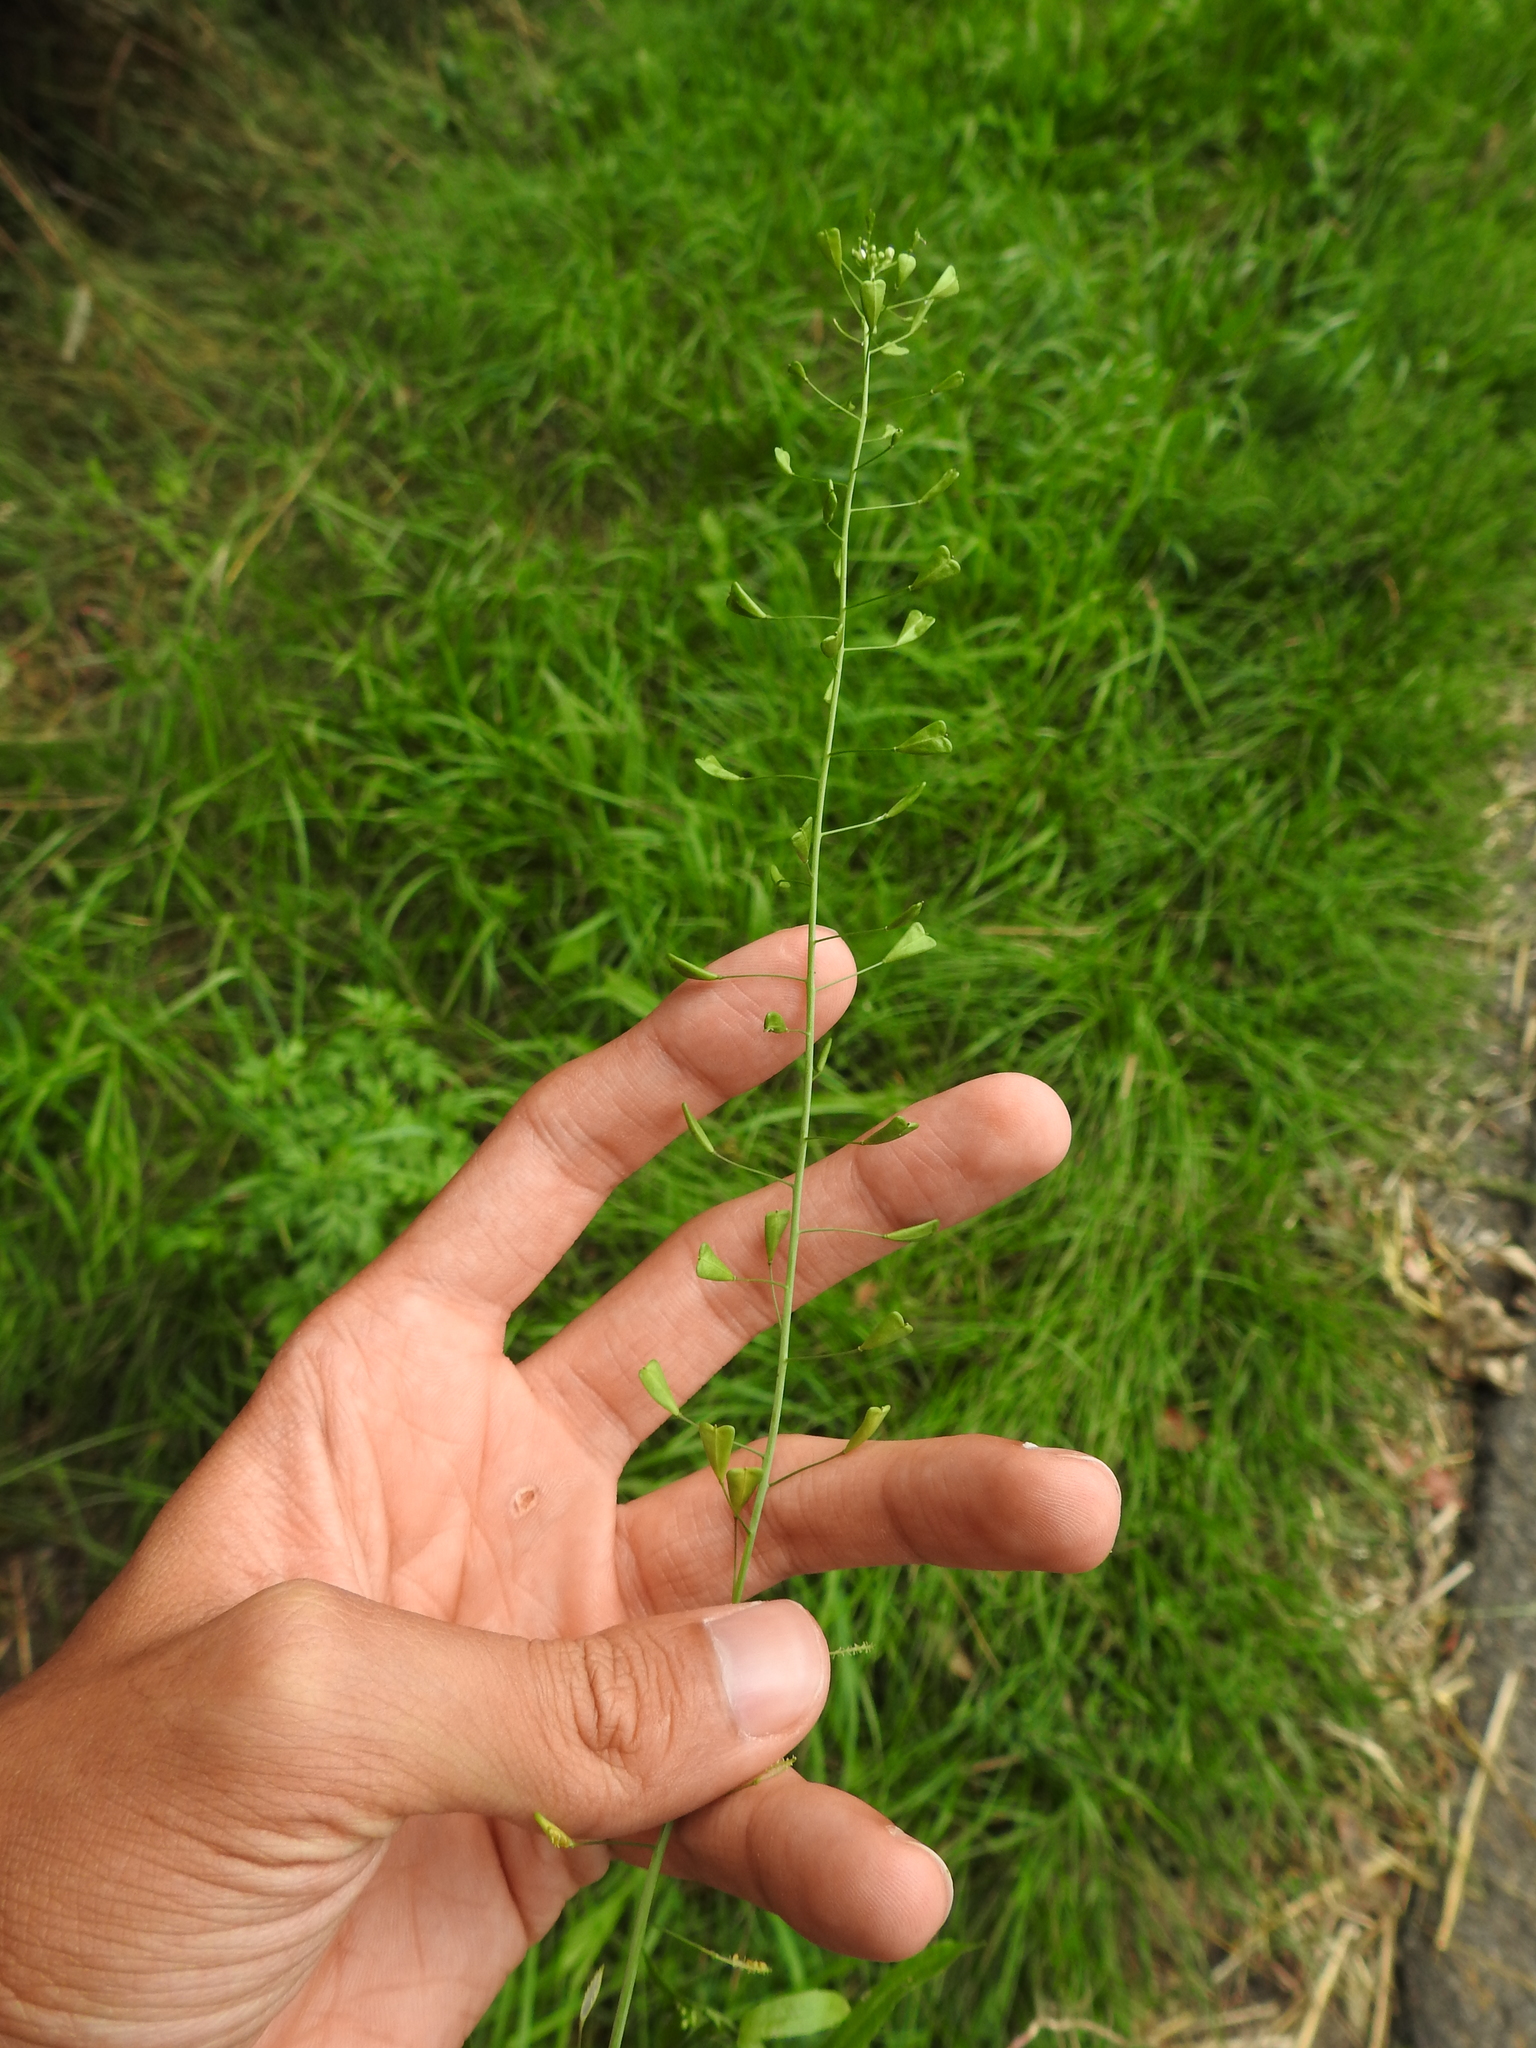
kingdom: Plantae
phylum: Tracheophyta
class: Magnoliopsida
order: Brassicales
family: Brassicaceae
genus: Capsella
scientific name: Capsella bursa-pastoris
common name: Shepherd's purse
